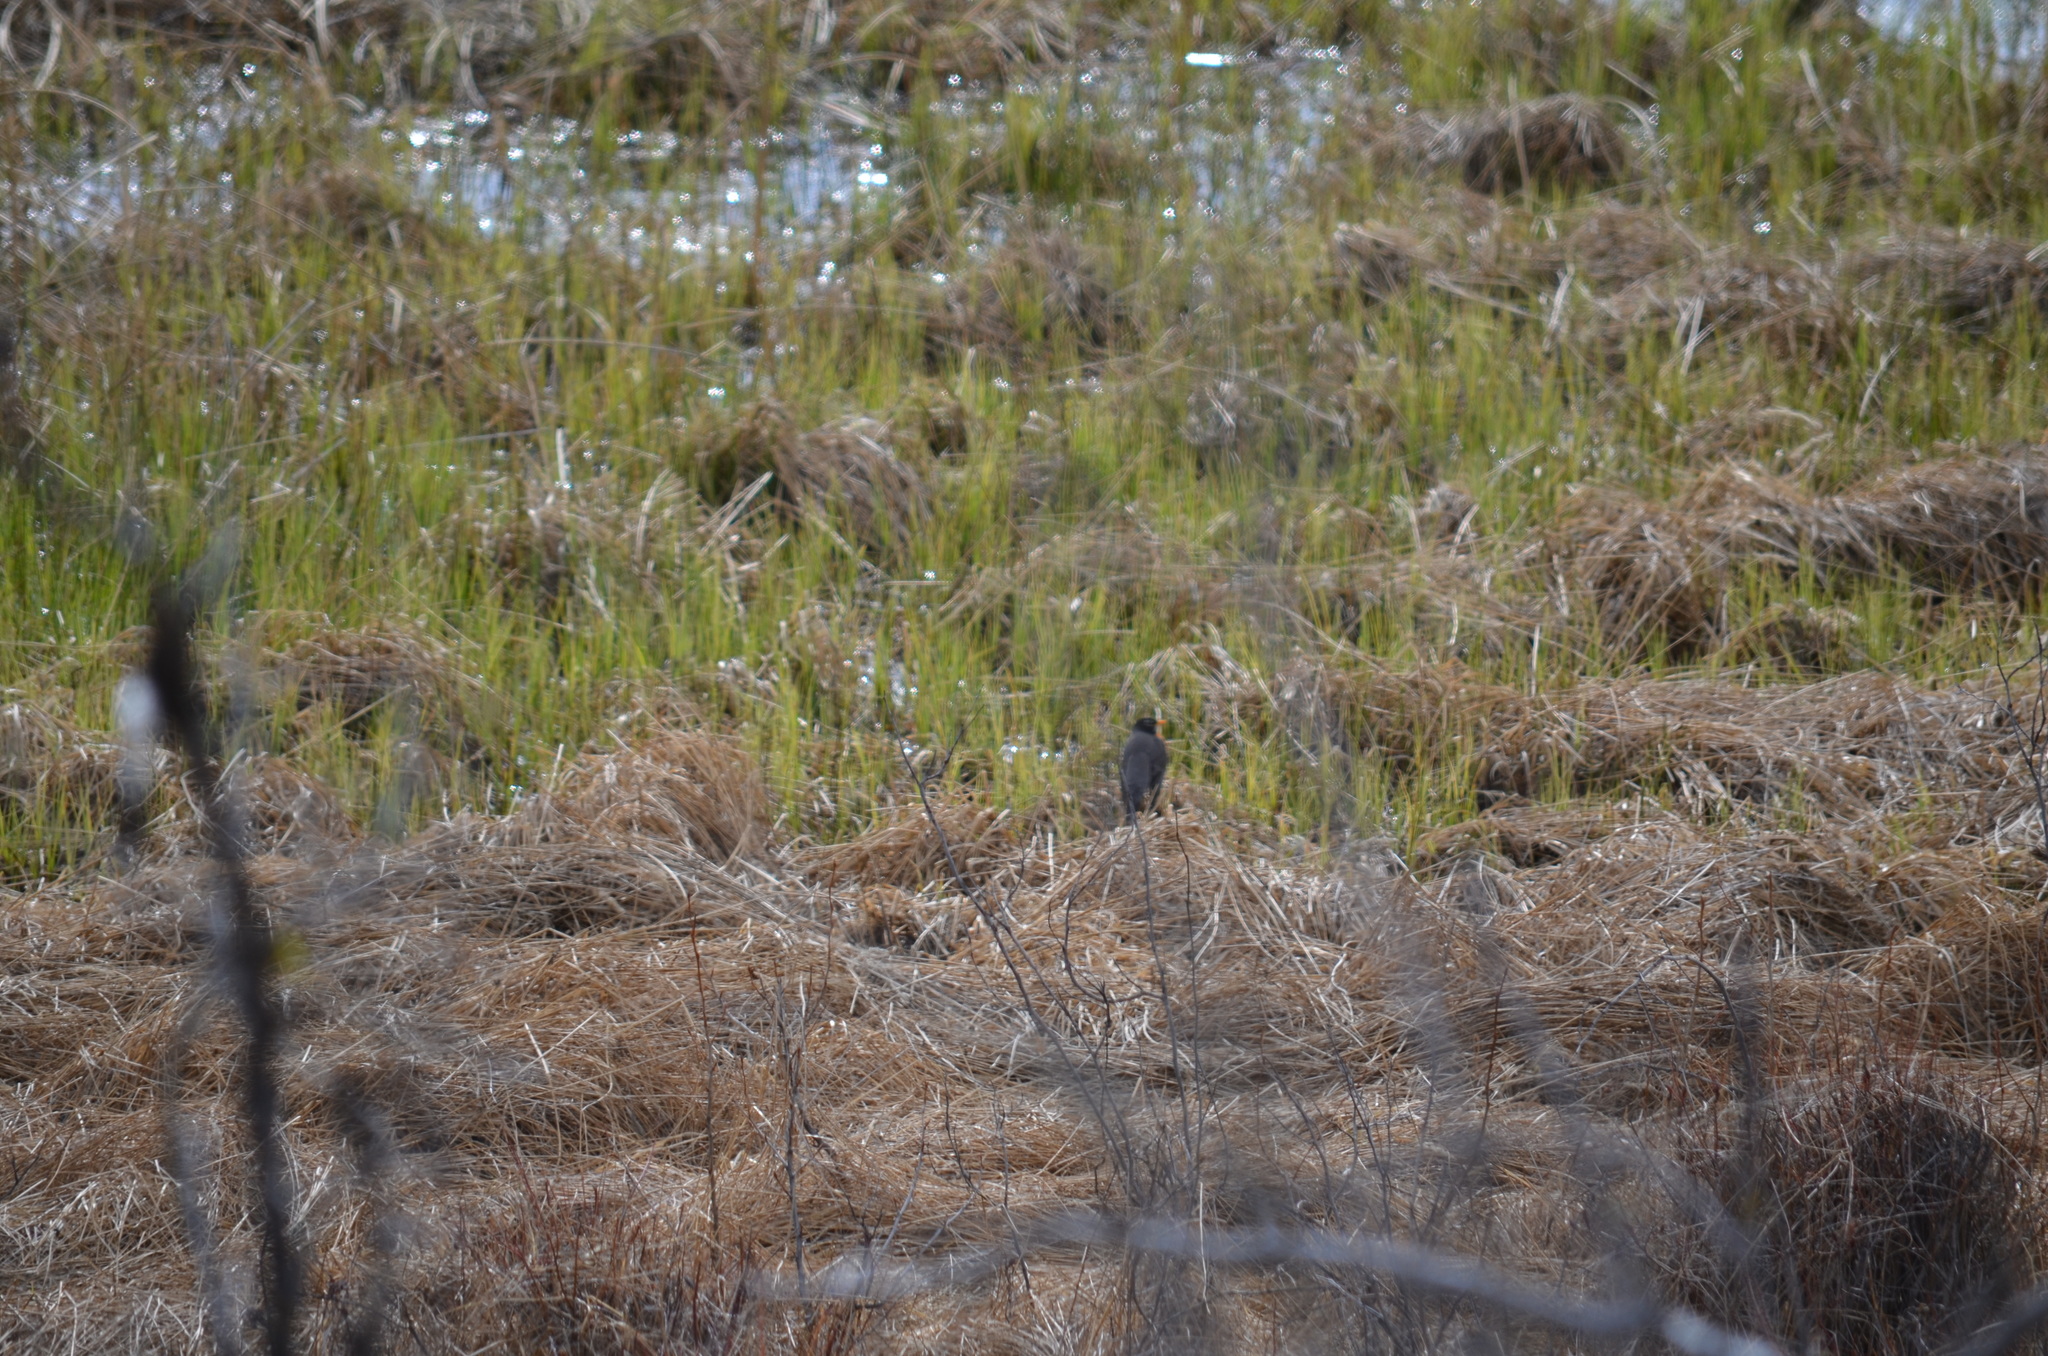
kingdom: Animalia
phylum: Chordata
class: Aves
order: Passeriformes
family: Turdidae
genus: Turdus
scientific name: Turdus migratorius
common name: American robin
